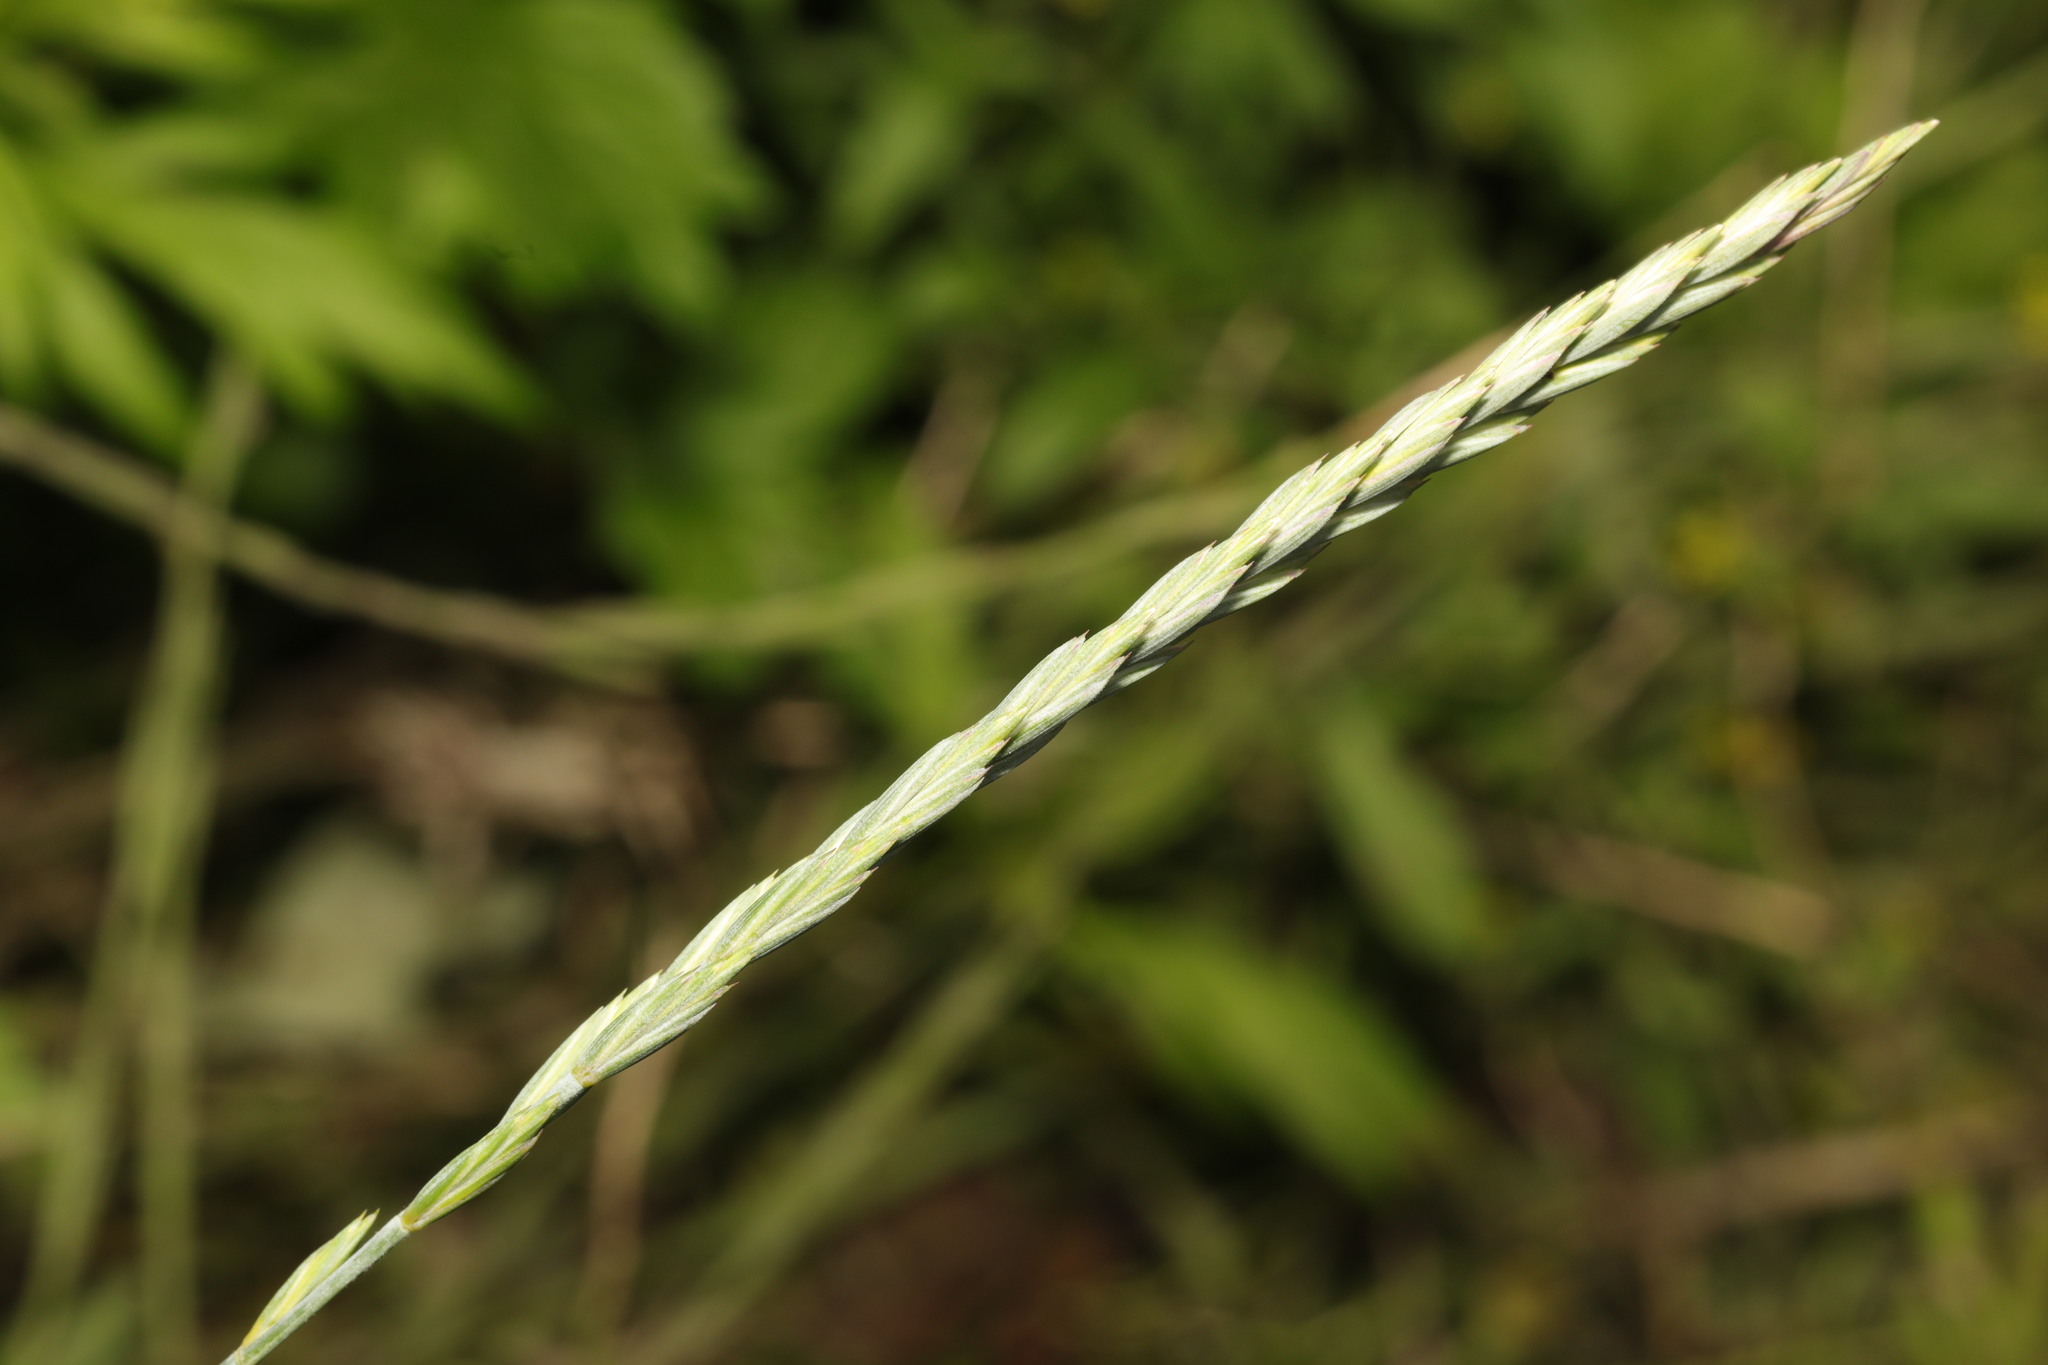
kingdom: Plantae
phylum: Tracheophyta
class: Liliopsida
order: Poales
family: Poaceae
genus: Elymus
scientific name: Elymus repens
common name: Quackgrass
